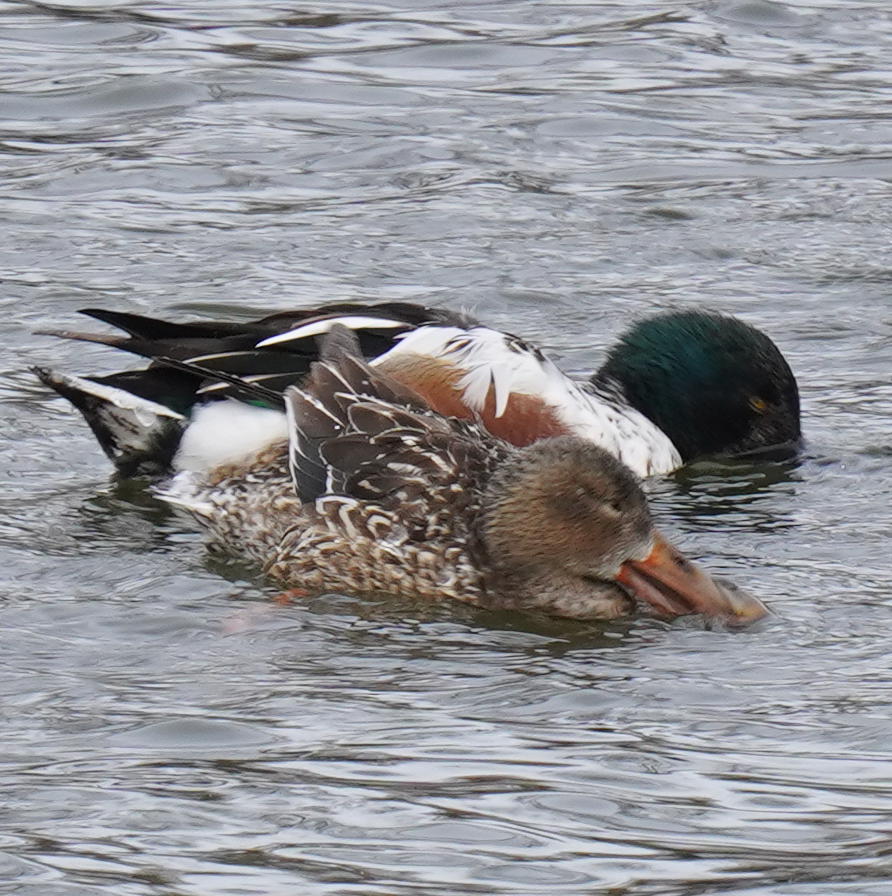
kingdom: Animalia
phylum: Chordata
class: Aves
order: Anseriformes
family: Anatidae
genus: Spatula
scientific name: Spatula clypeata
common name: Northern shoveler
